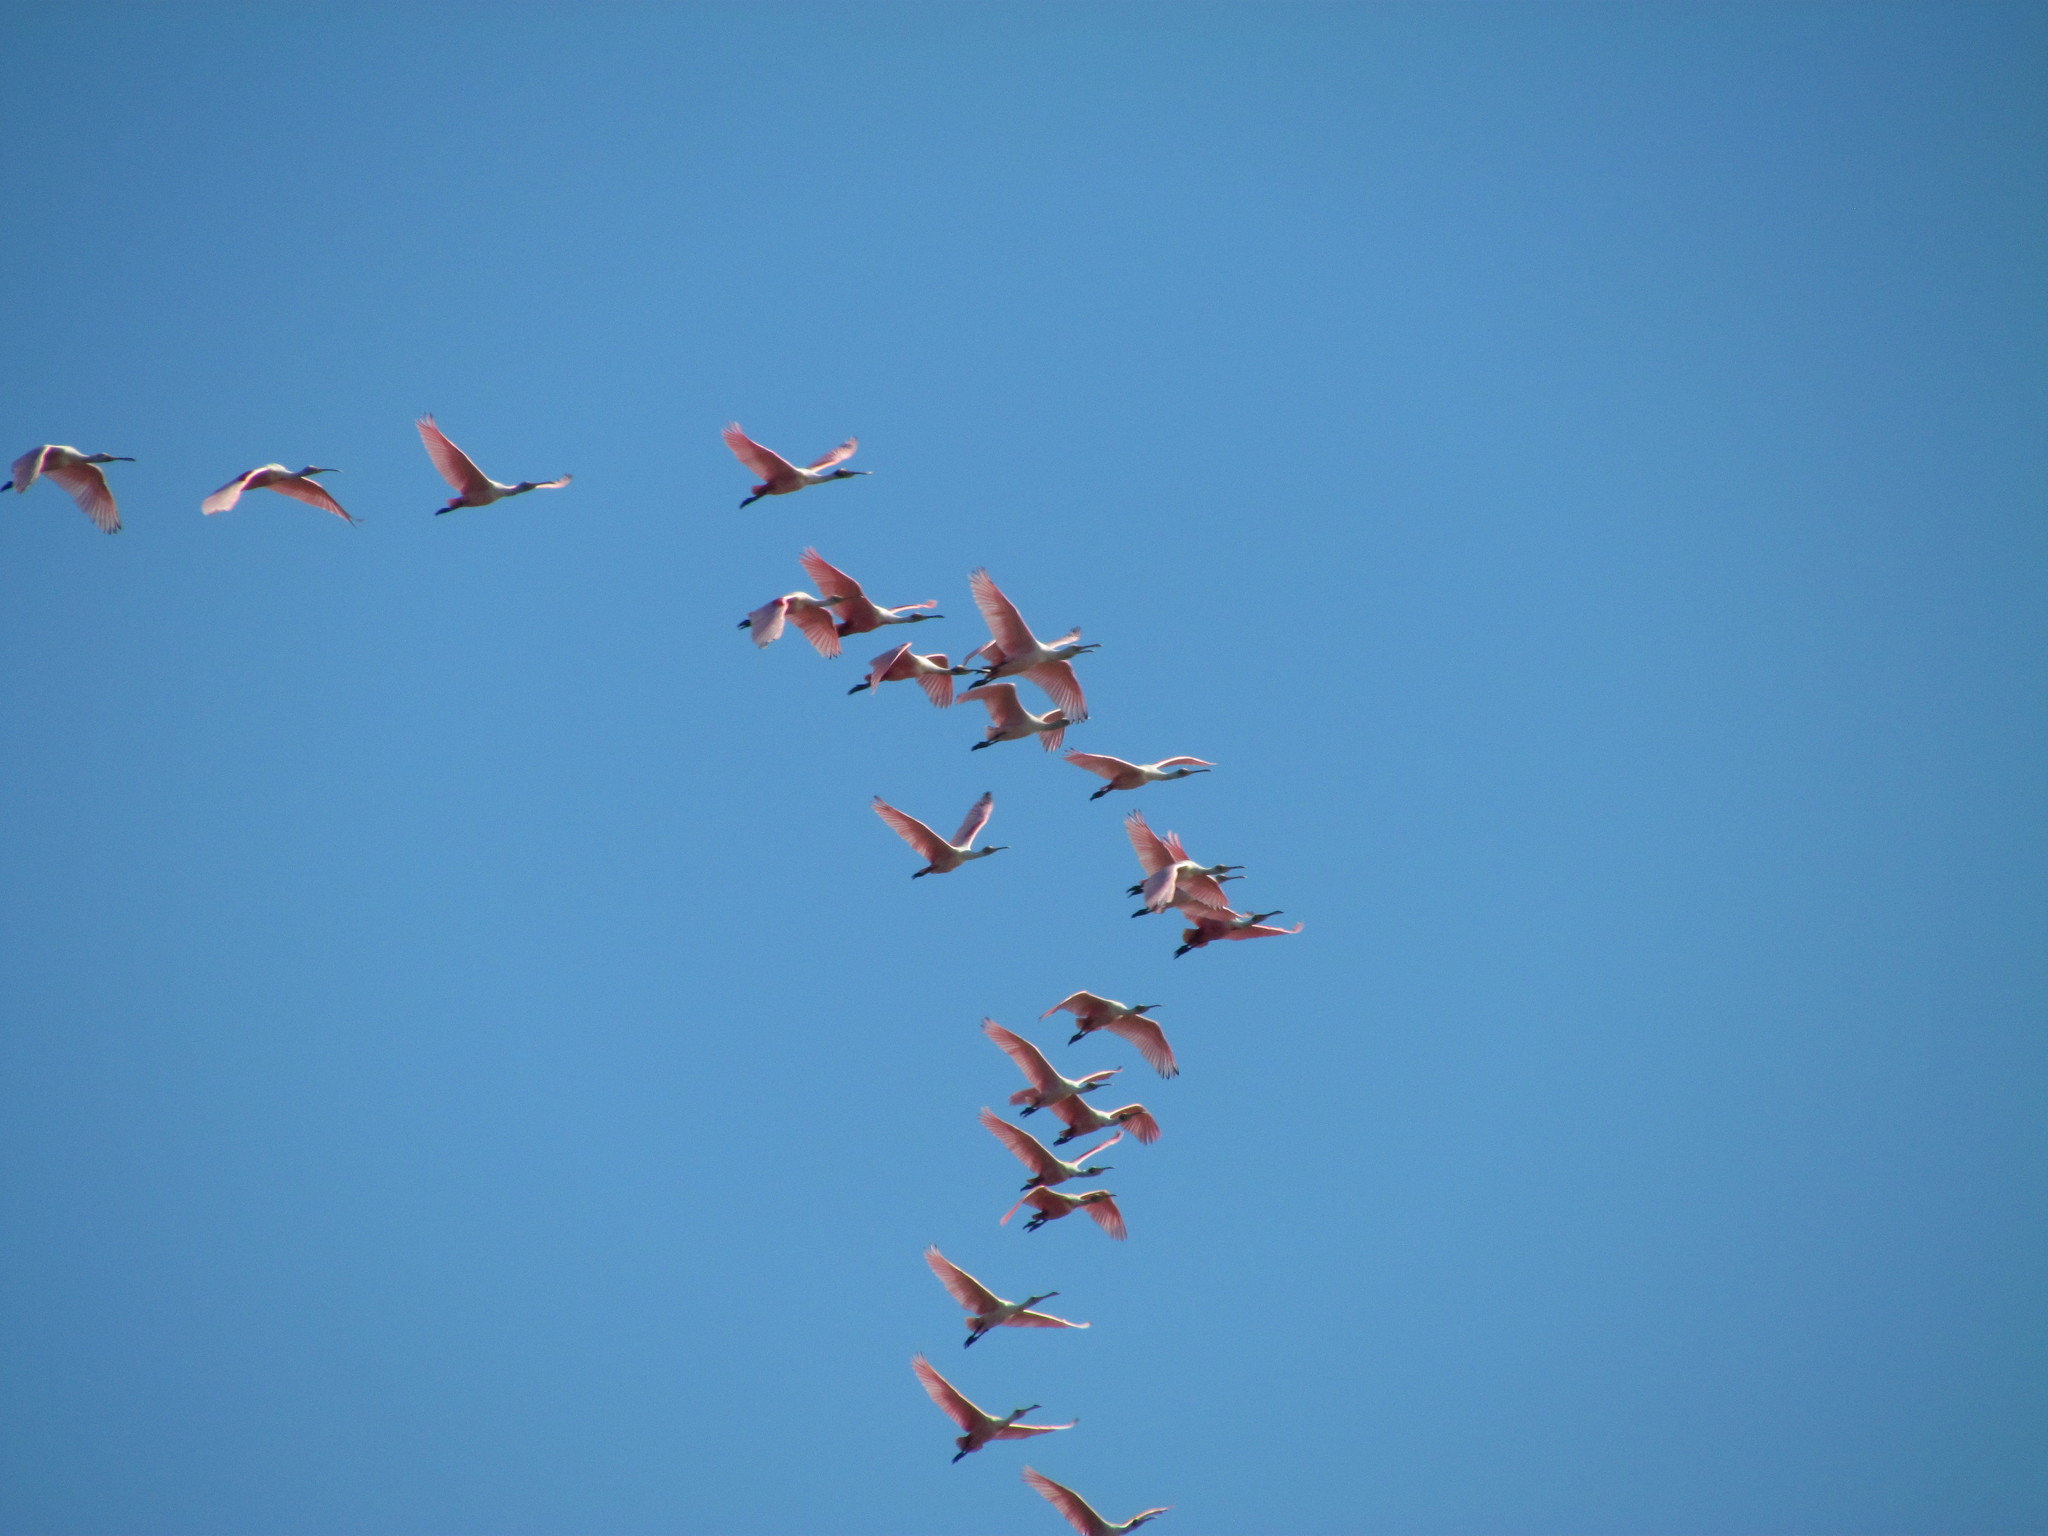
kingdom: Animalia
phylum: Chordata
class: Aves
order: Pelecaniformes
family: Threskiornithidae
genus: Platalea
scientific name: Platalea ajaja
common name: Roseate spoonbill
